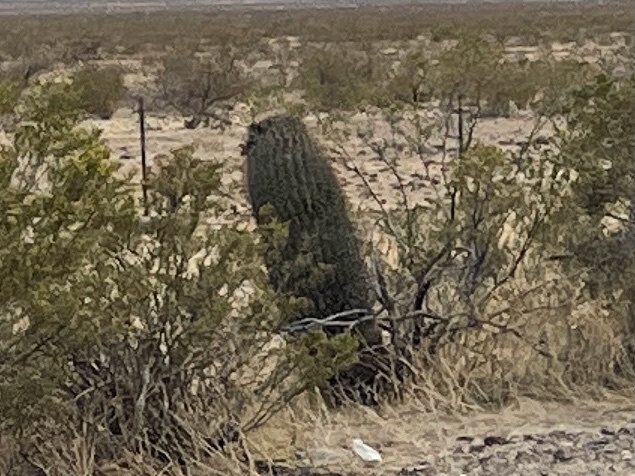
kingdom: Plantae
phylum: Tracheophyta
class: Magnoliopsida
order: Caryophyllales
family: Cactaceae
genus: Ferocactus
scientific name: Ferocactus wislizeni
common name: Candy barrel cactus
